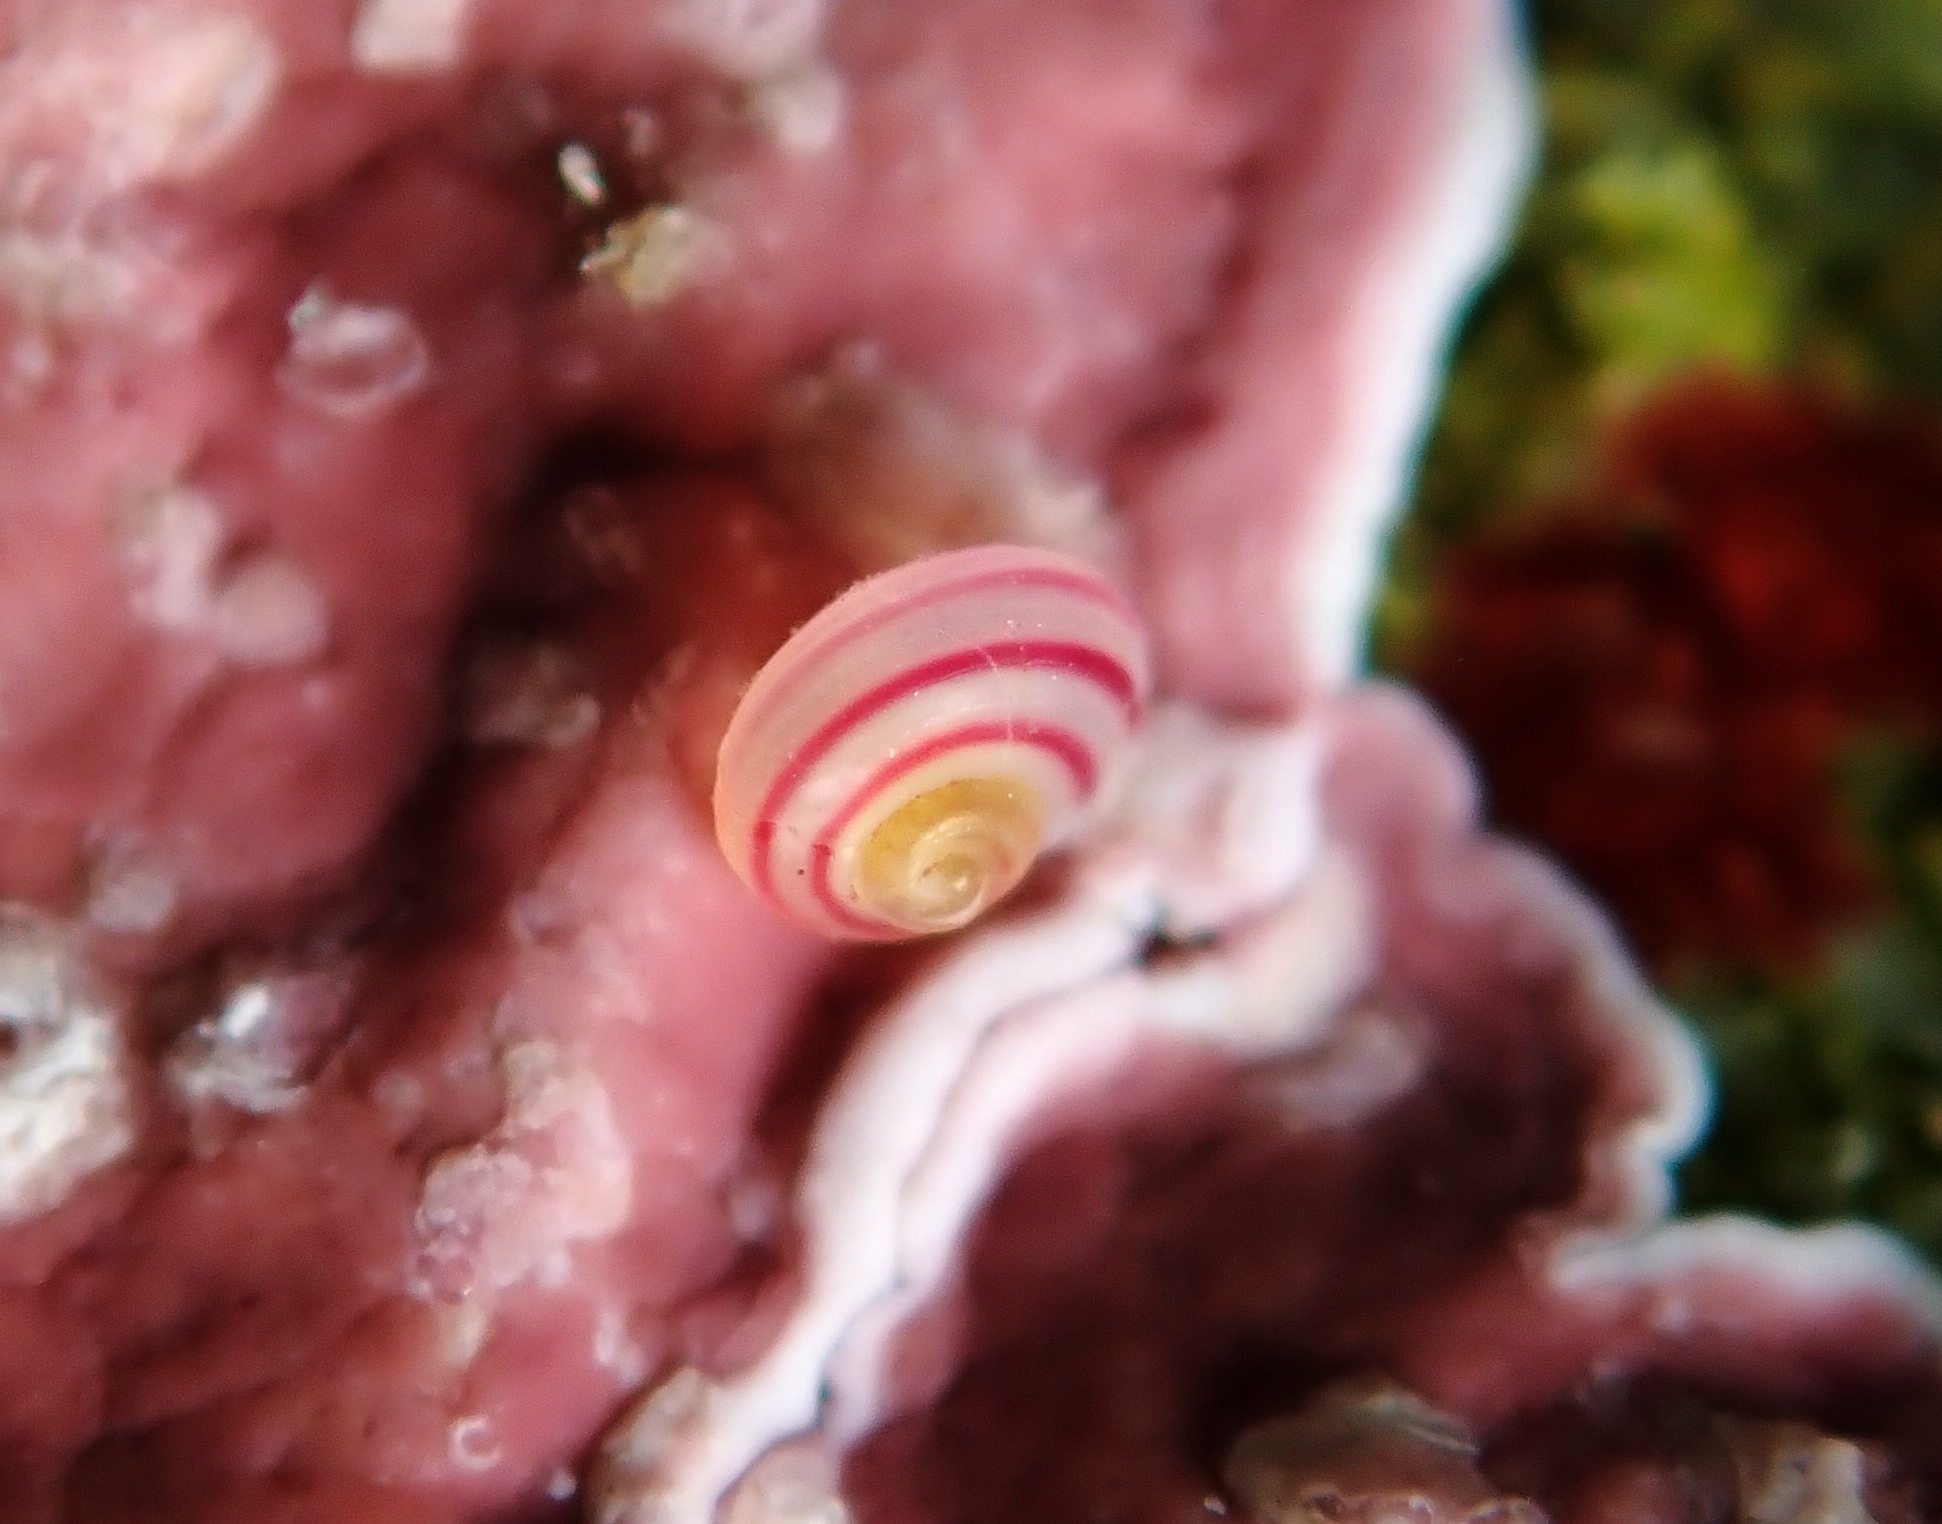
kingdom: Animalia
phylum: Mollusca
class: Gastropoda
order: Trochida
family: Trochidae
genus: Coelotrochus
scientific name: Coelotrochus chathamensis
